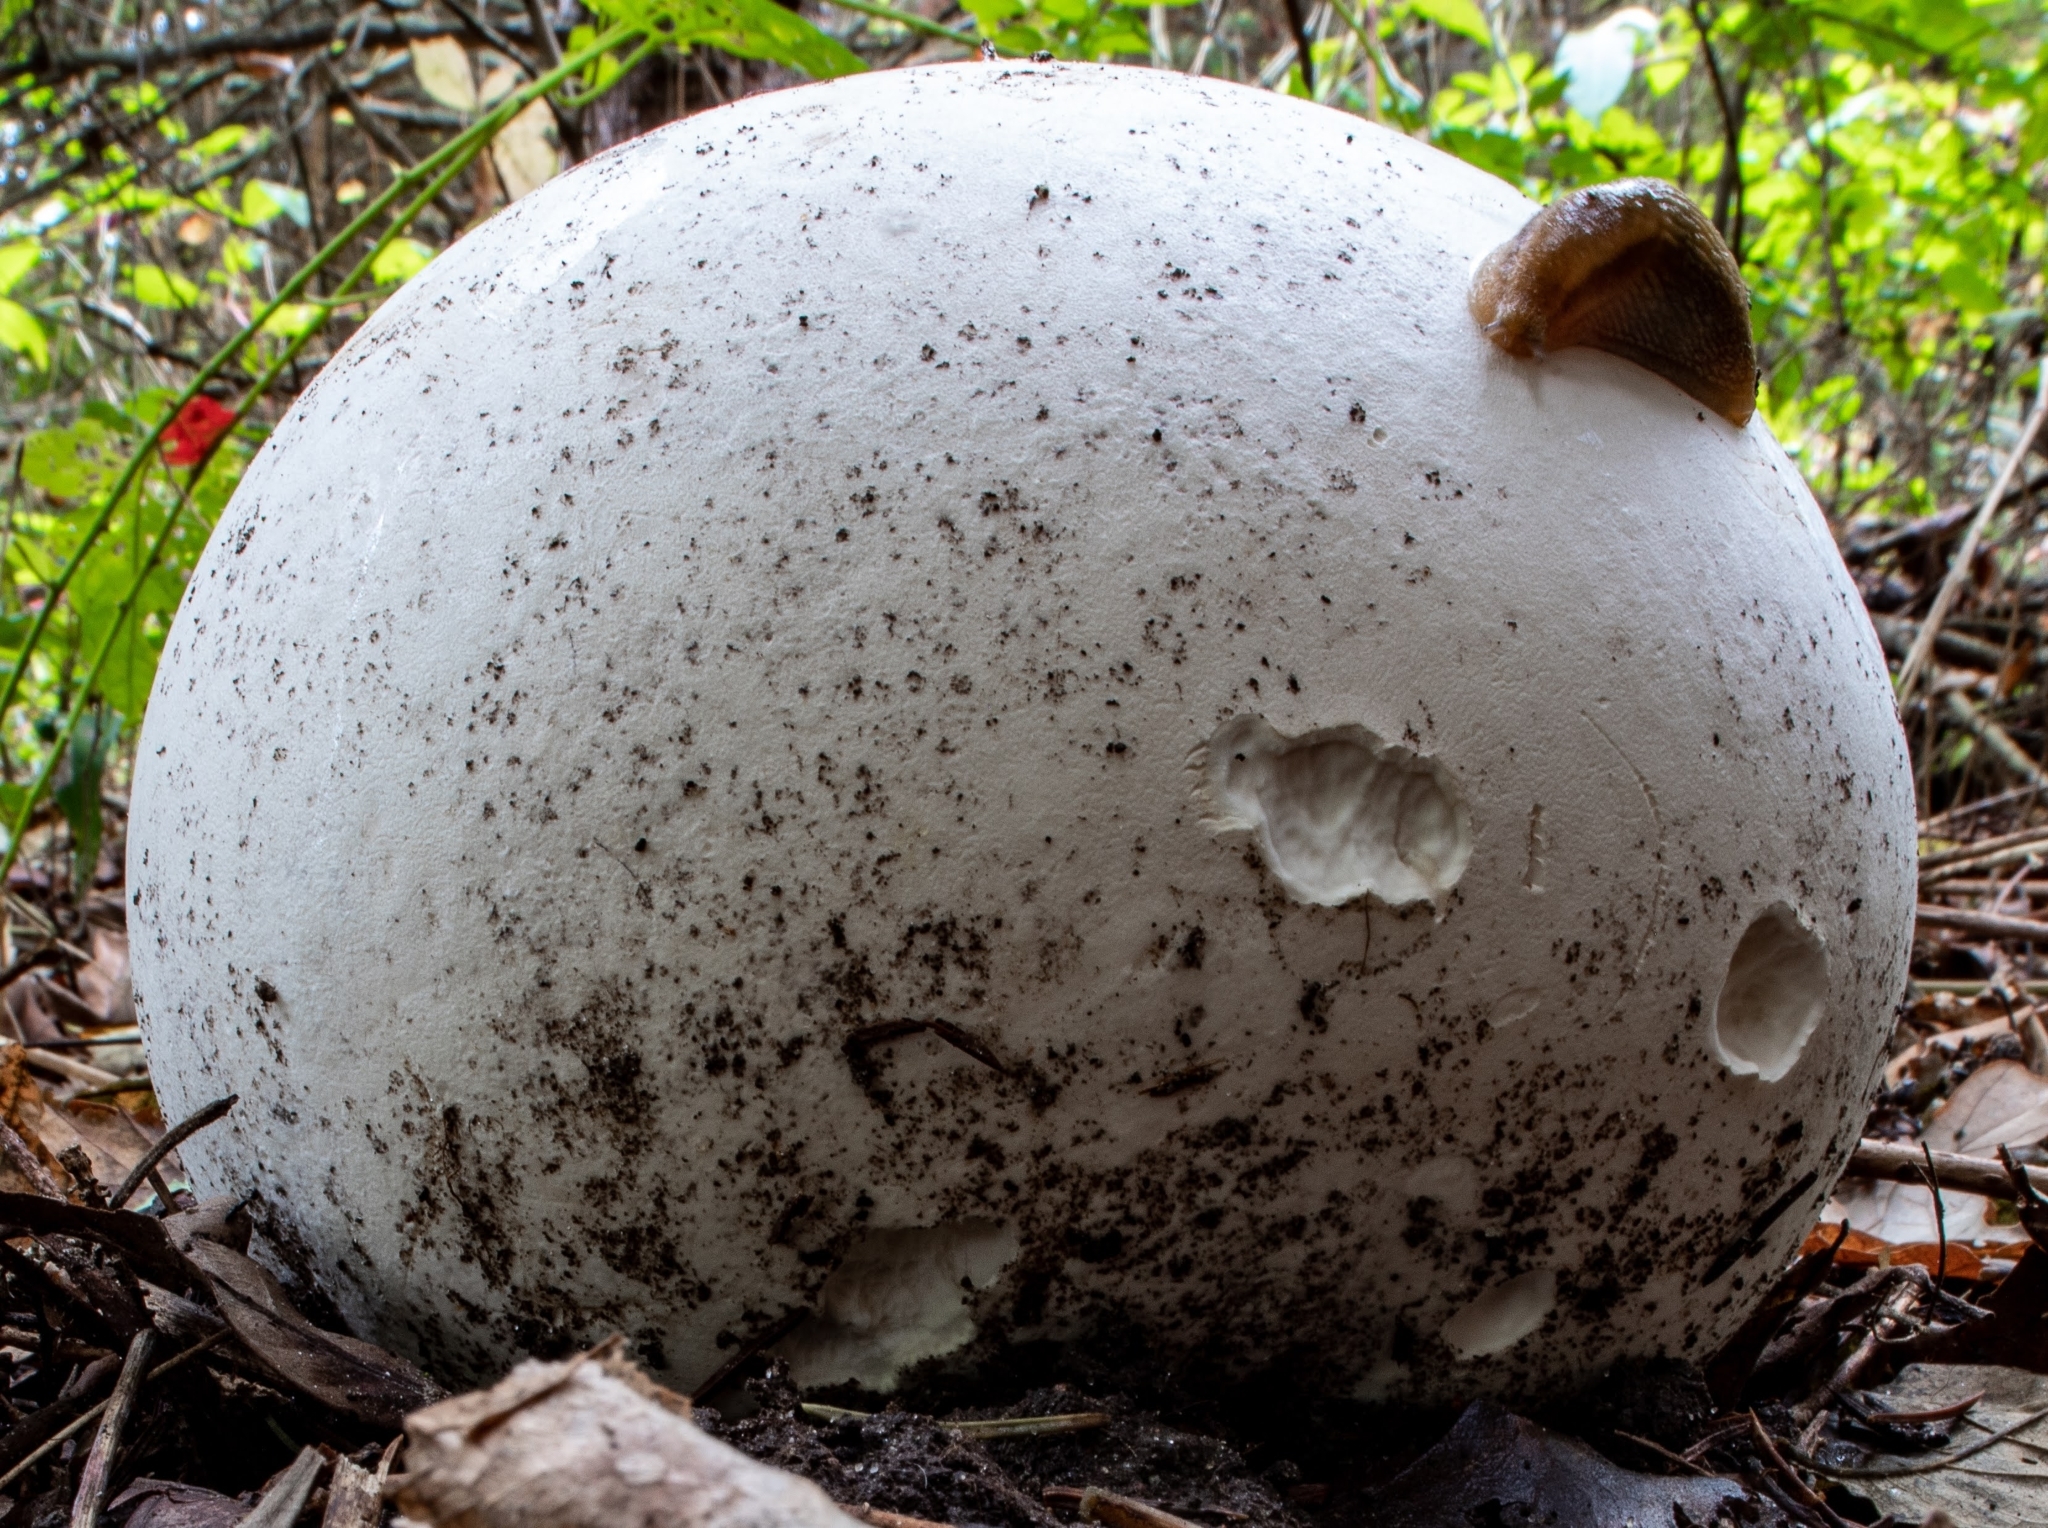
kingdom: Fungi
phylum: Basidiomycota
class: Agaricomycetes
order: Agaricales
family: Lycoperdaceae
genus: Calvatia
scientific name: Calvatia gigantea
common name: Giant puffball
